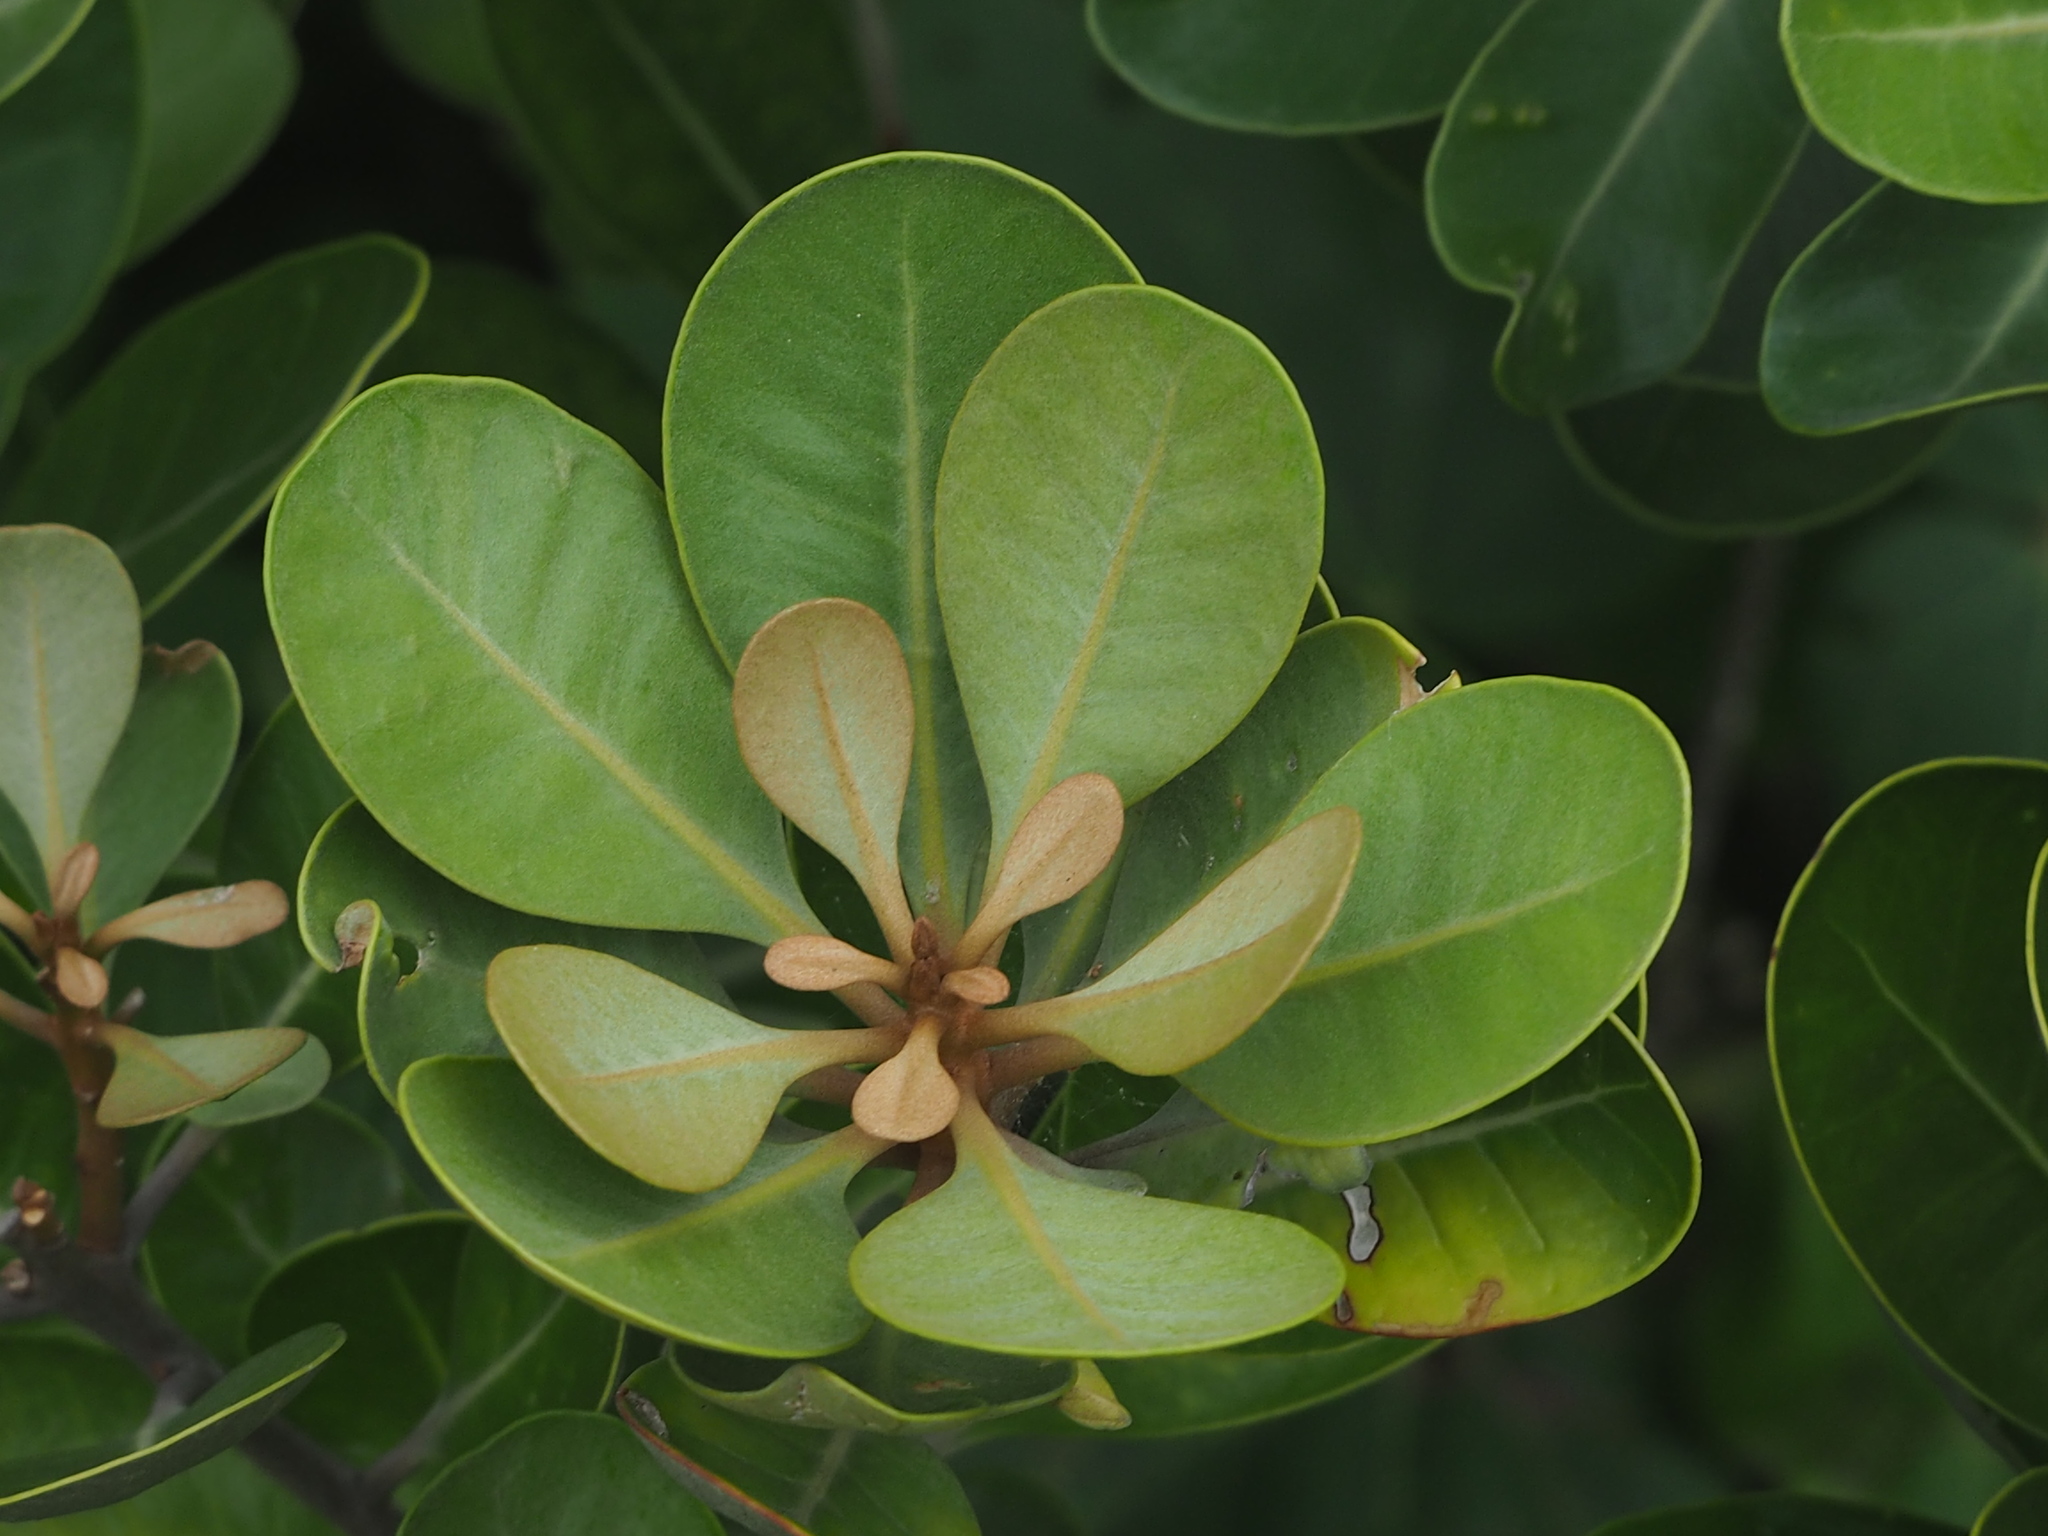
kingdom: Plantae
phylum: Tracheophyta
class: Magnoliopsida
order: Ericales
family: Sapotaceae
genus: Planchonella
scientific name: Planchonella obovata
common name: Black-ash
